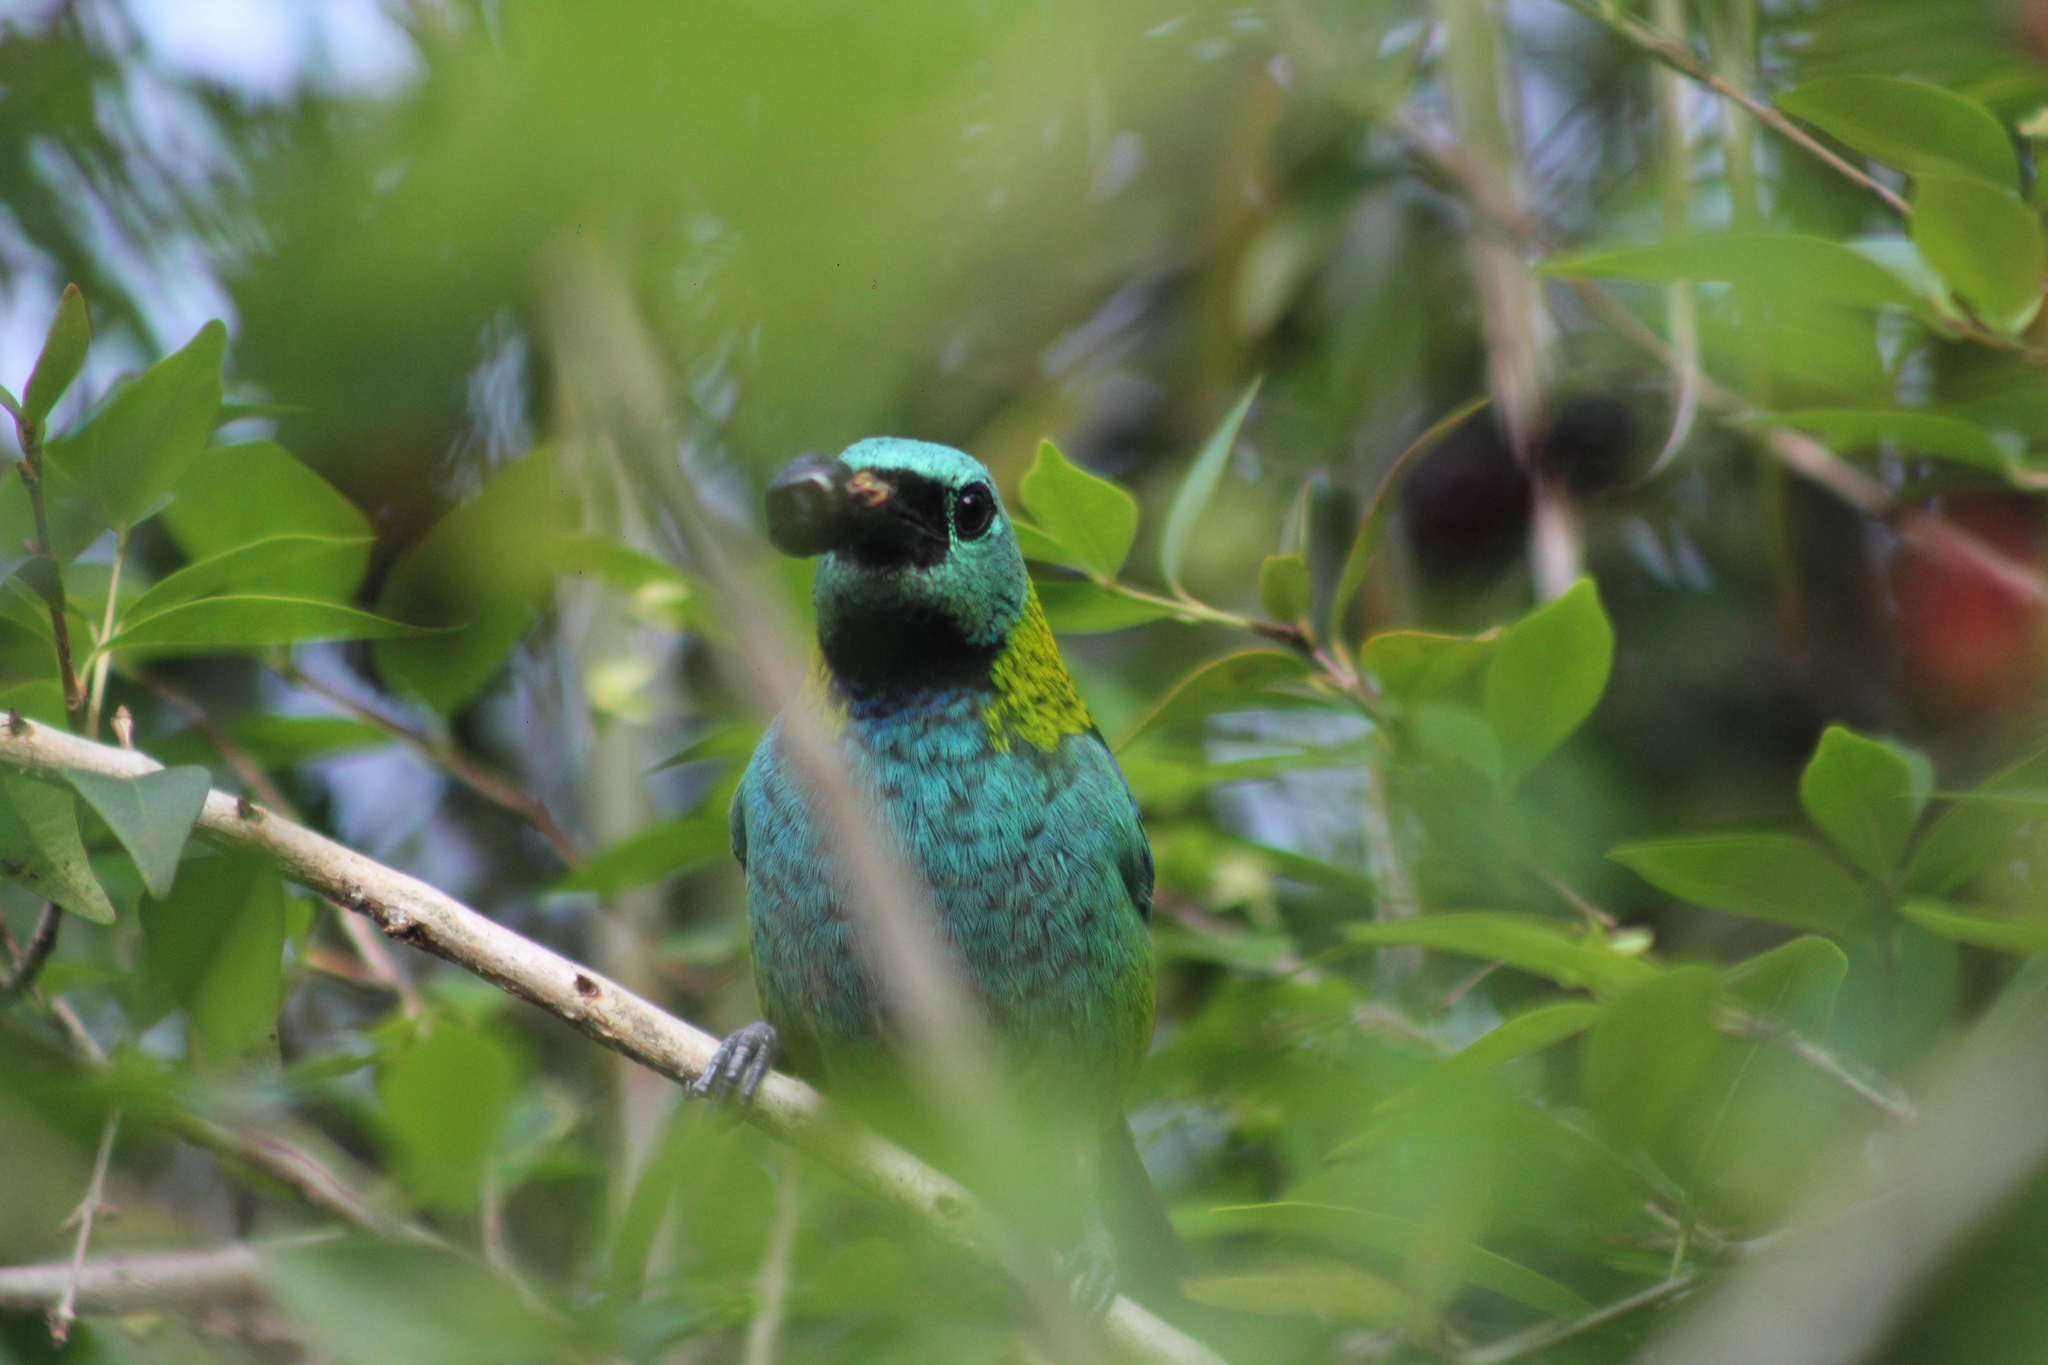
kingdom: Animalia
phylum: Chordata
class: Aves
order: Passeriformes
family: Thraupidae
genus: Tangara
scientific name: Tangara seledon
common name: Green-headed tanager
